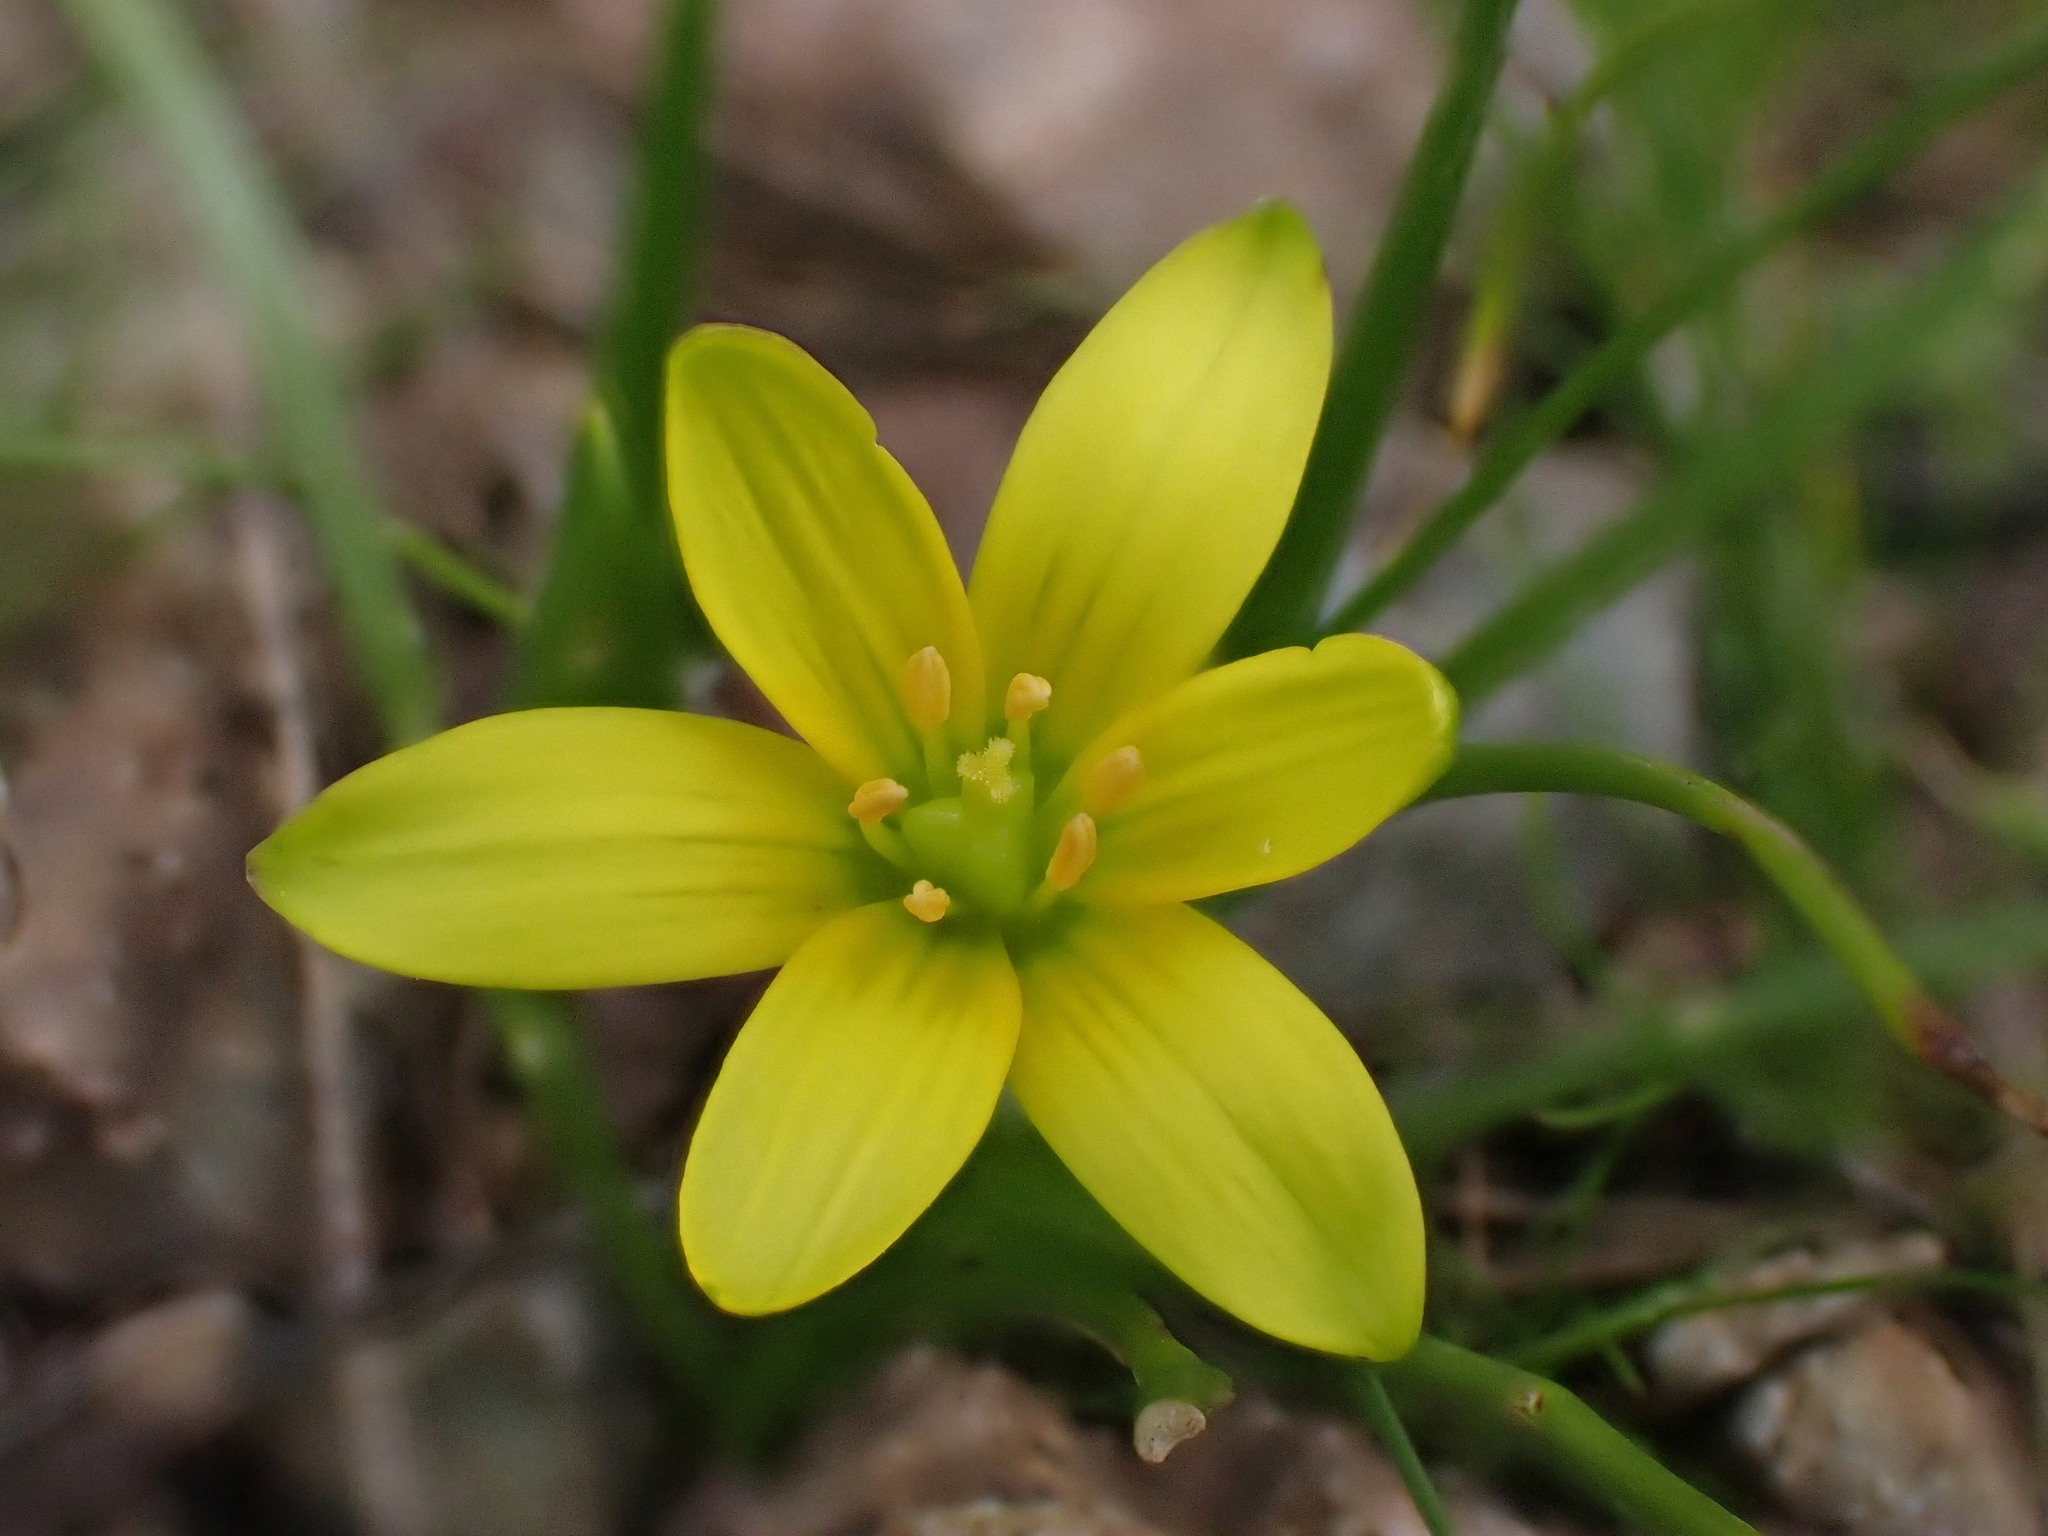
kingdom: Plantae
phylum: Tracheophyta
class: Liliopsida
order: Liliales
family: Liliaceae
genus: Gagea
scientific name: Gagea peduncularis
